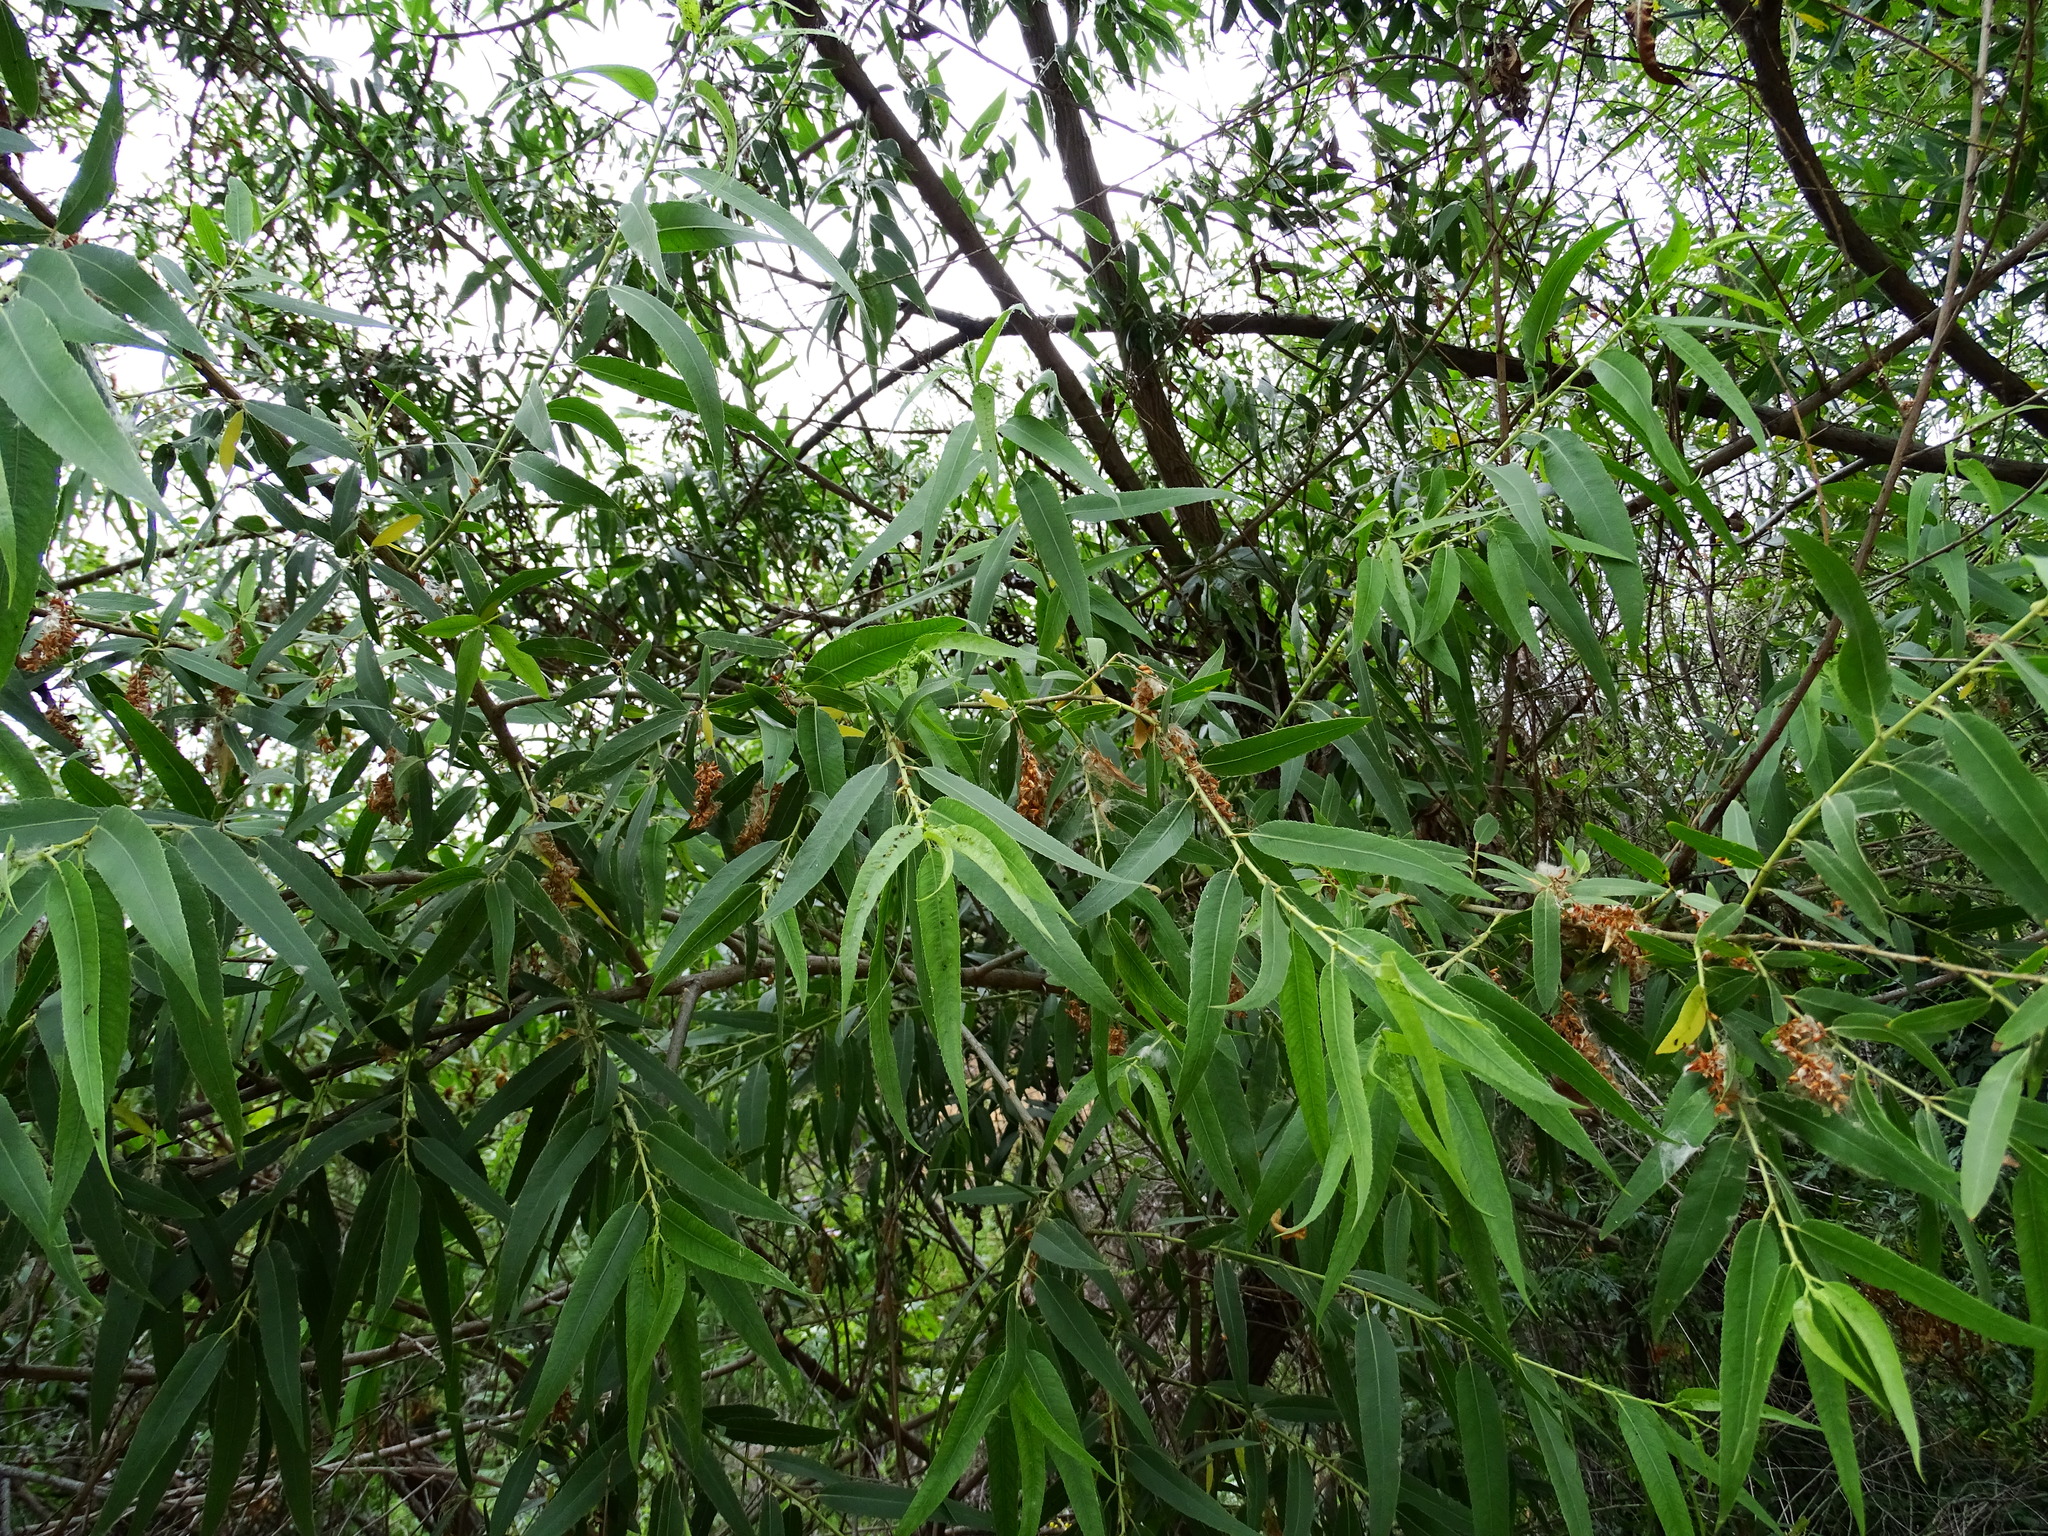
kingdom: Plantae
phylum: Tracheophyta
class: Magnoliopsida
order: Malpighiales
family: Salicaceae
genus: Salix
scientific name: Salix gooddingii
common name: Goodding's willow
